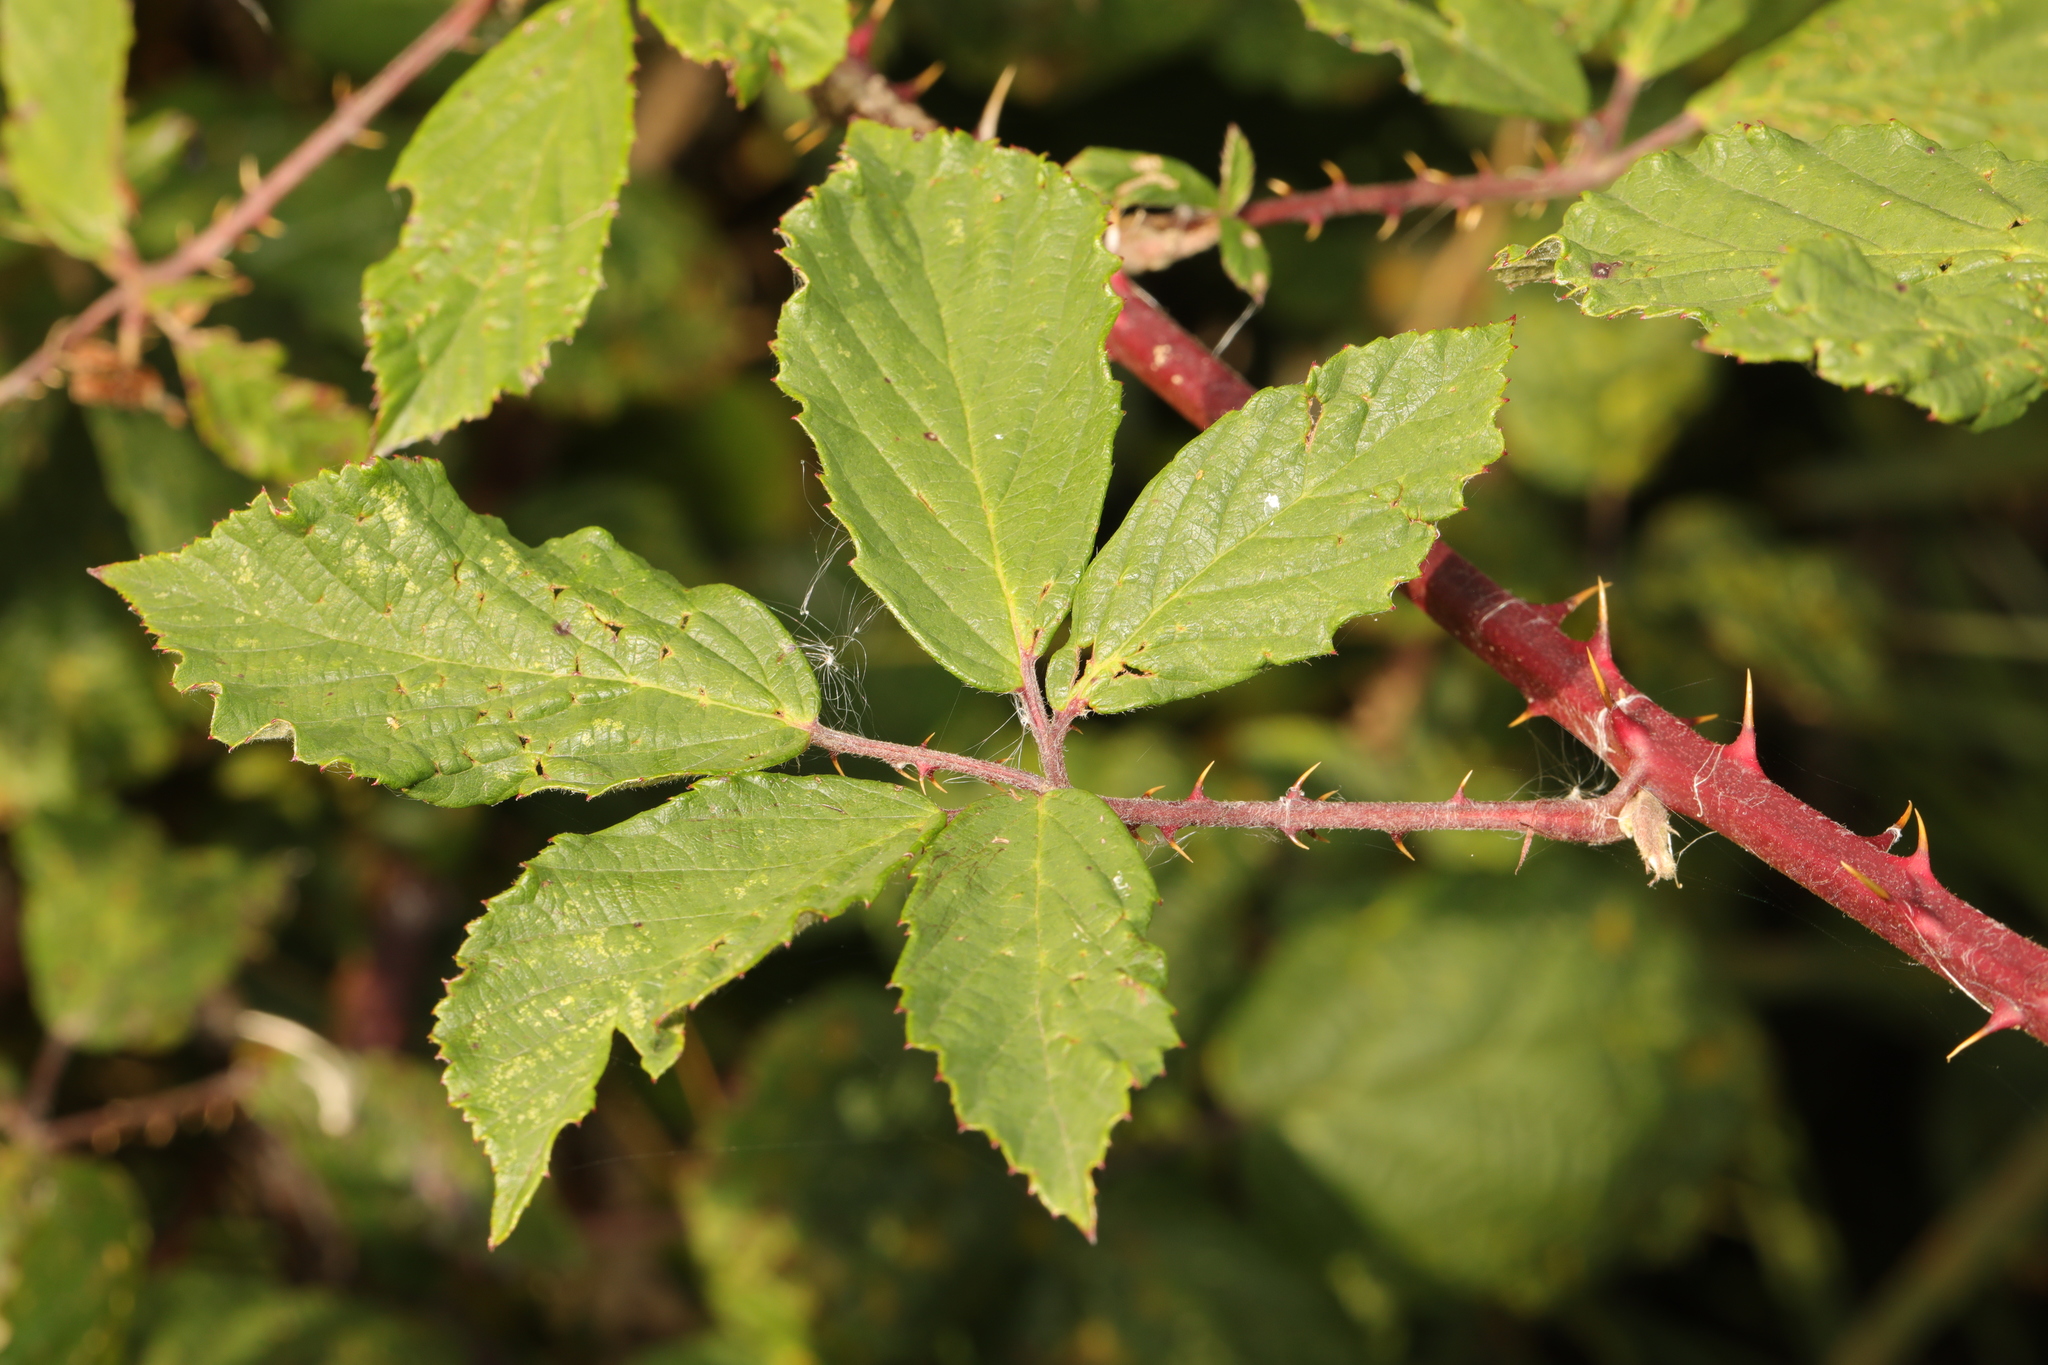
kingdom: Plantae
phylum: Tracheophyta
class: Magnoliopsida
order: Rosales
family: Rosaceae
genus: Rubus
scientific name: Rubus lindleyanus
